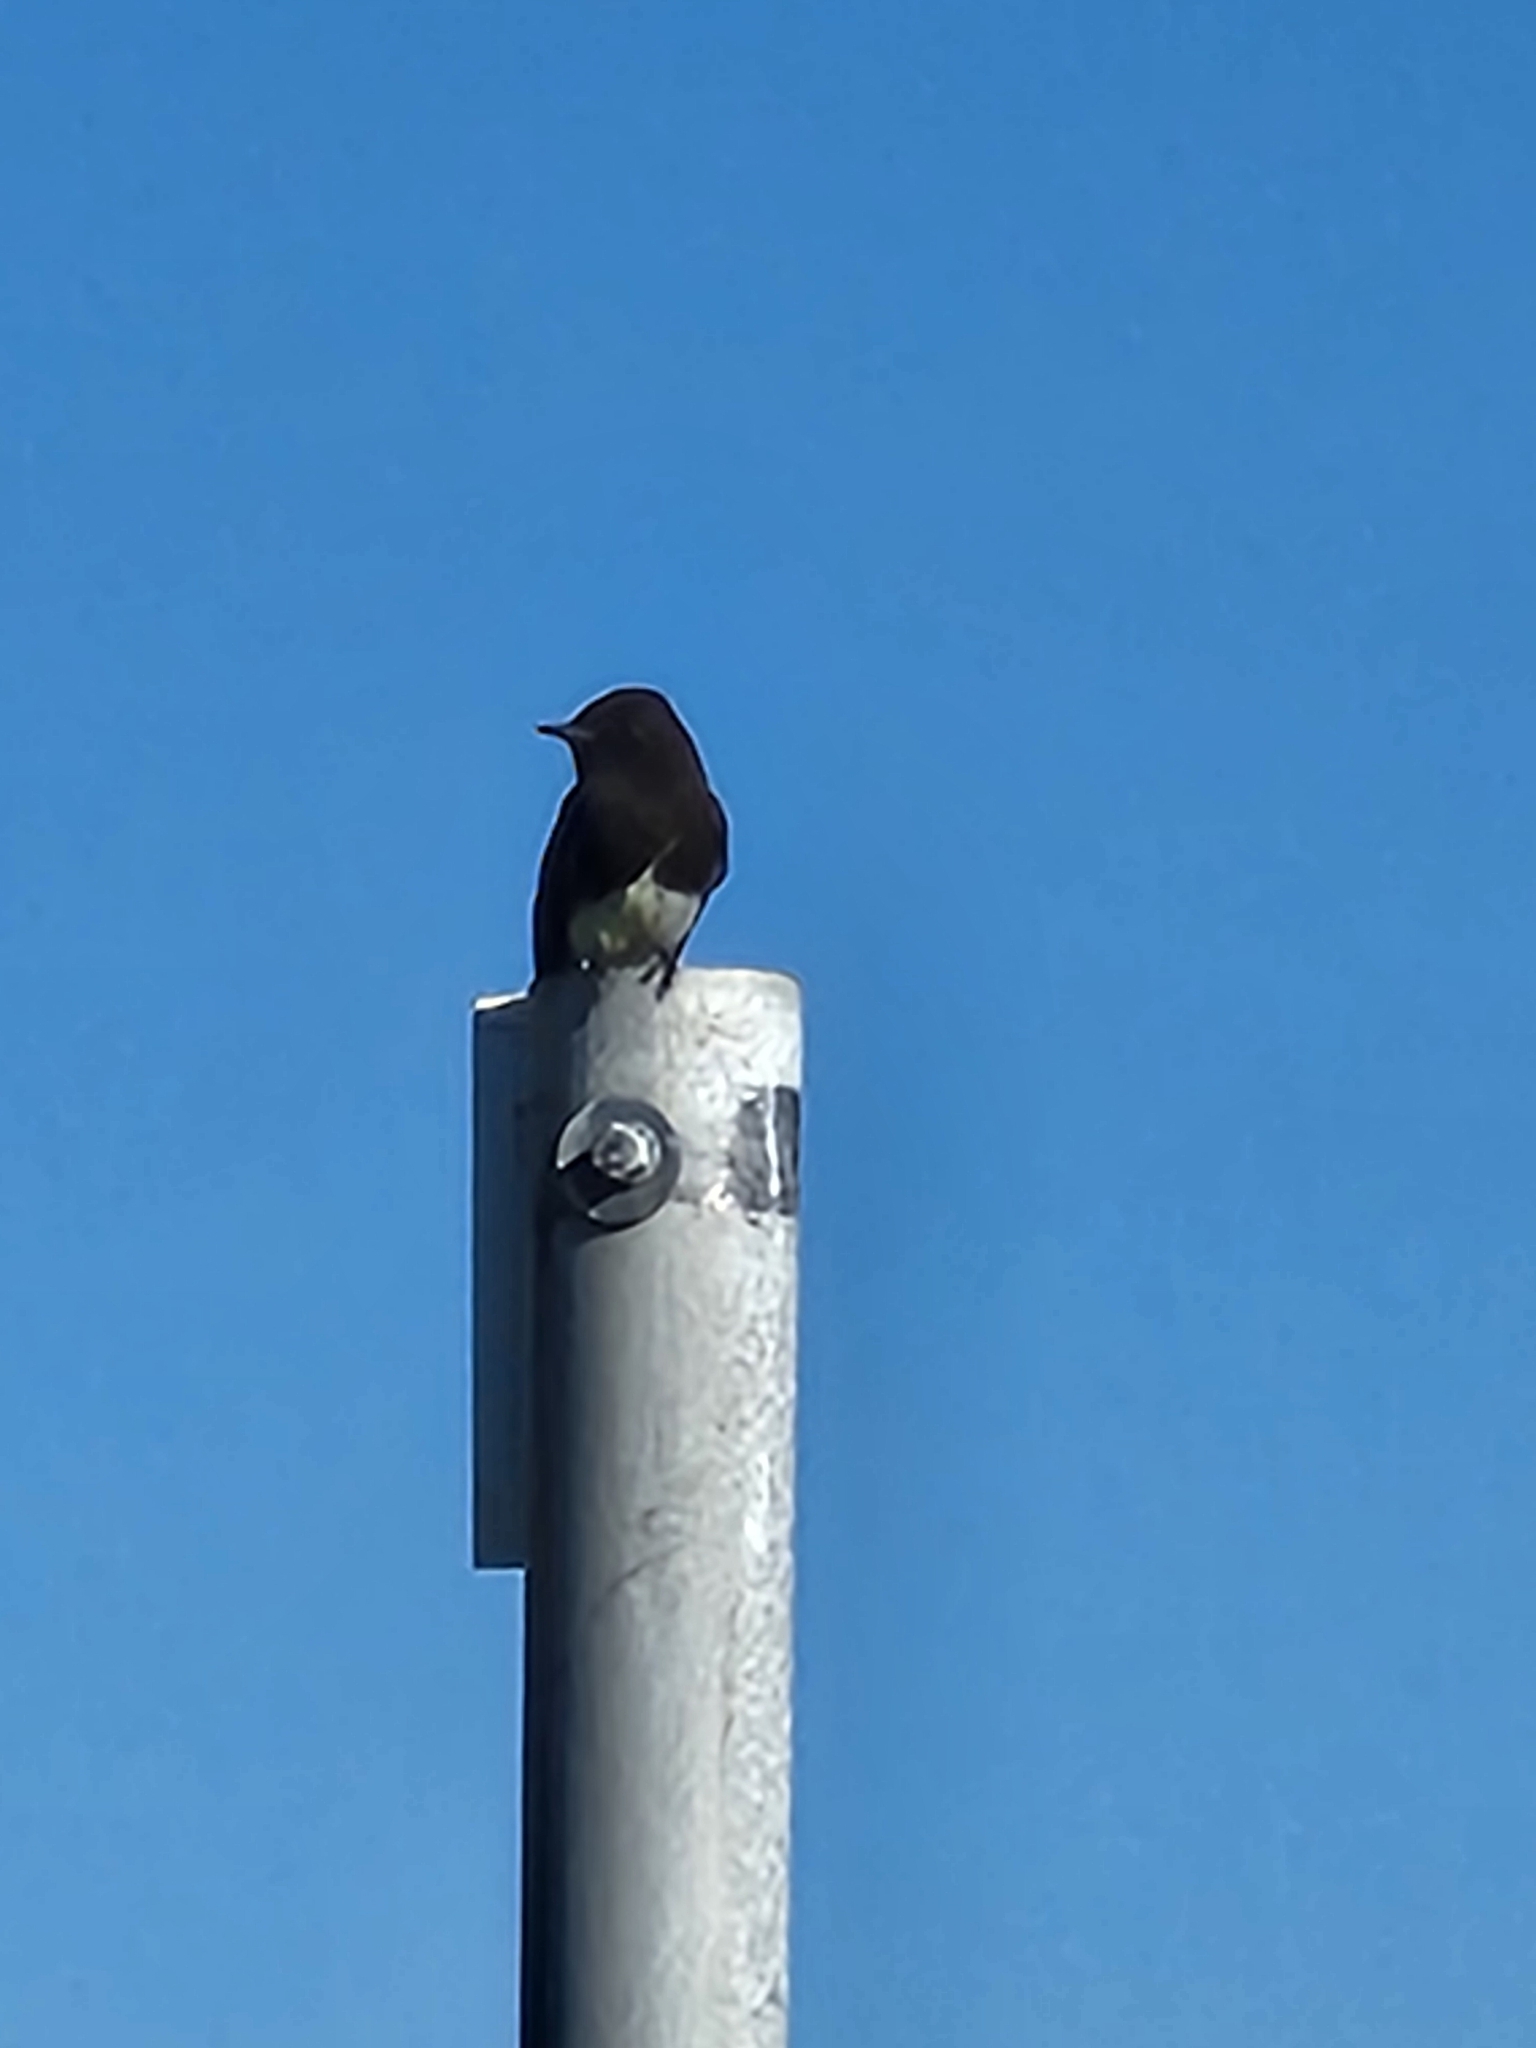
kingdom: Animalia
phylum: Chordata
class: Aves
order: Passeriformes
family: Tyrannidae
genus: Sayornis
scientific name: Sayornis nigricans
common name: Black phoebe
